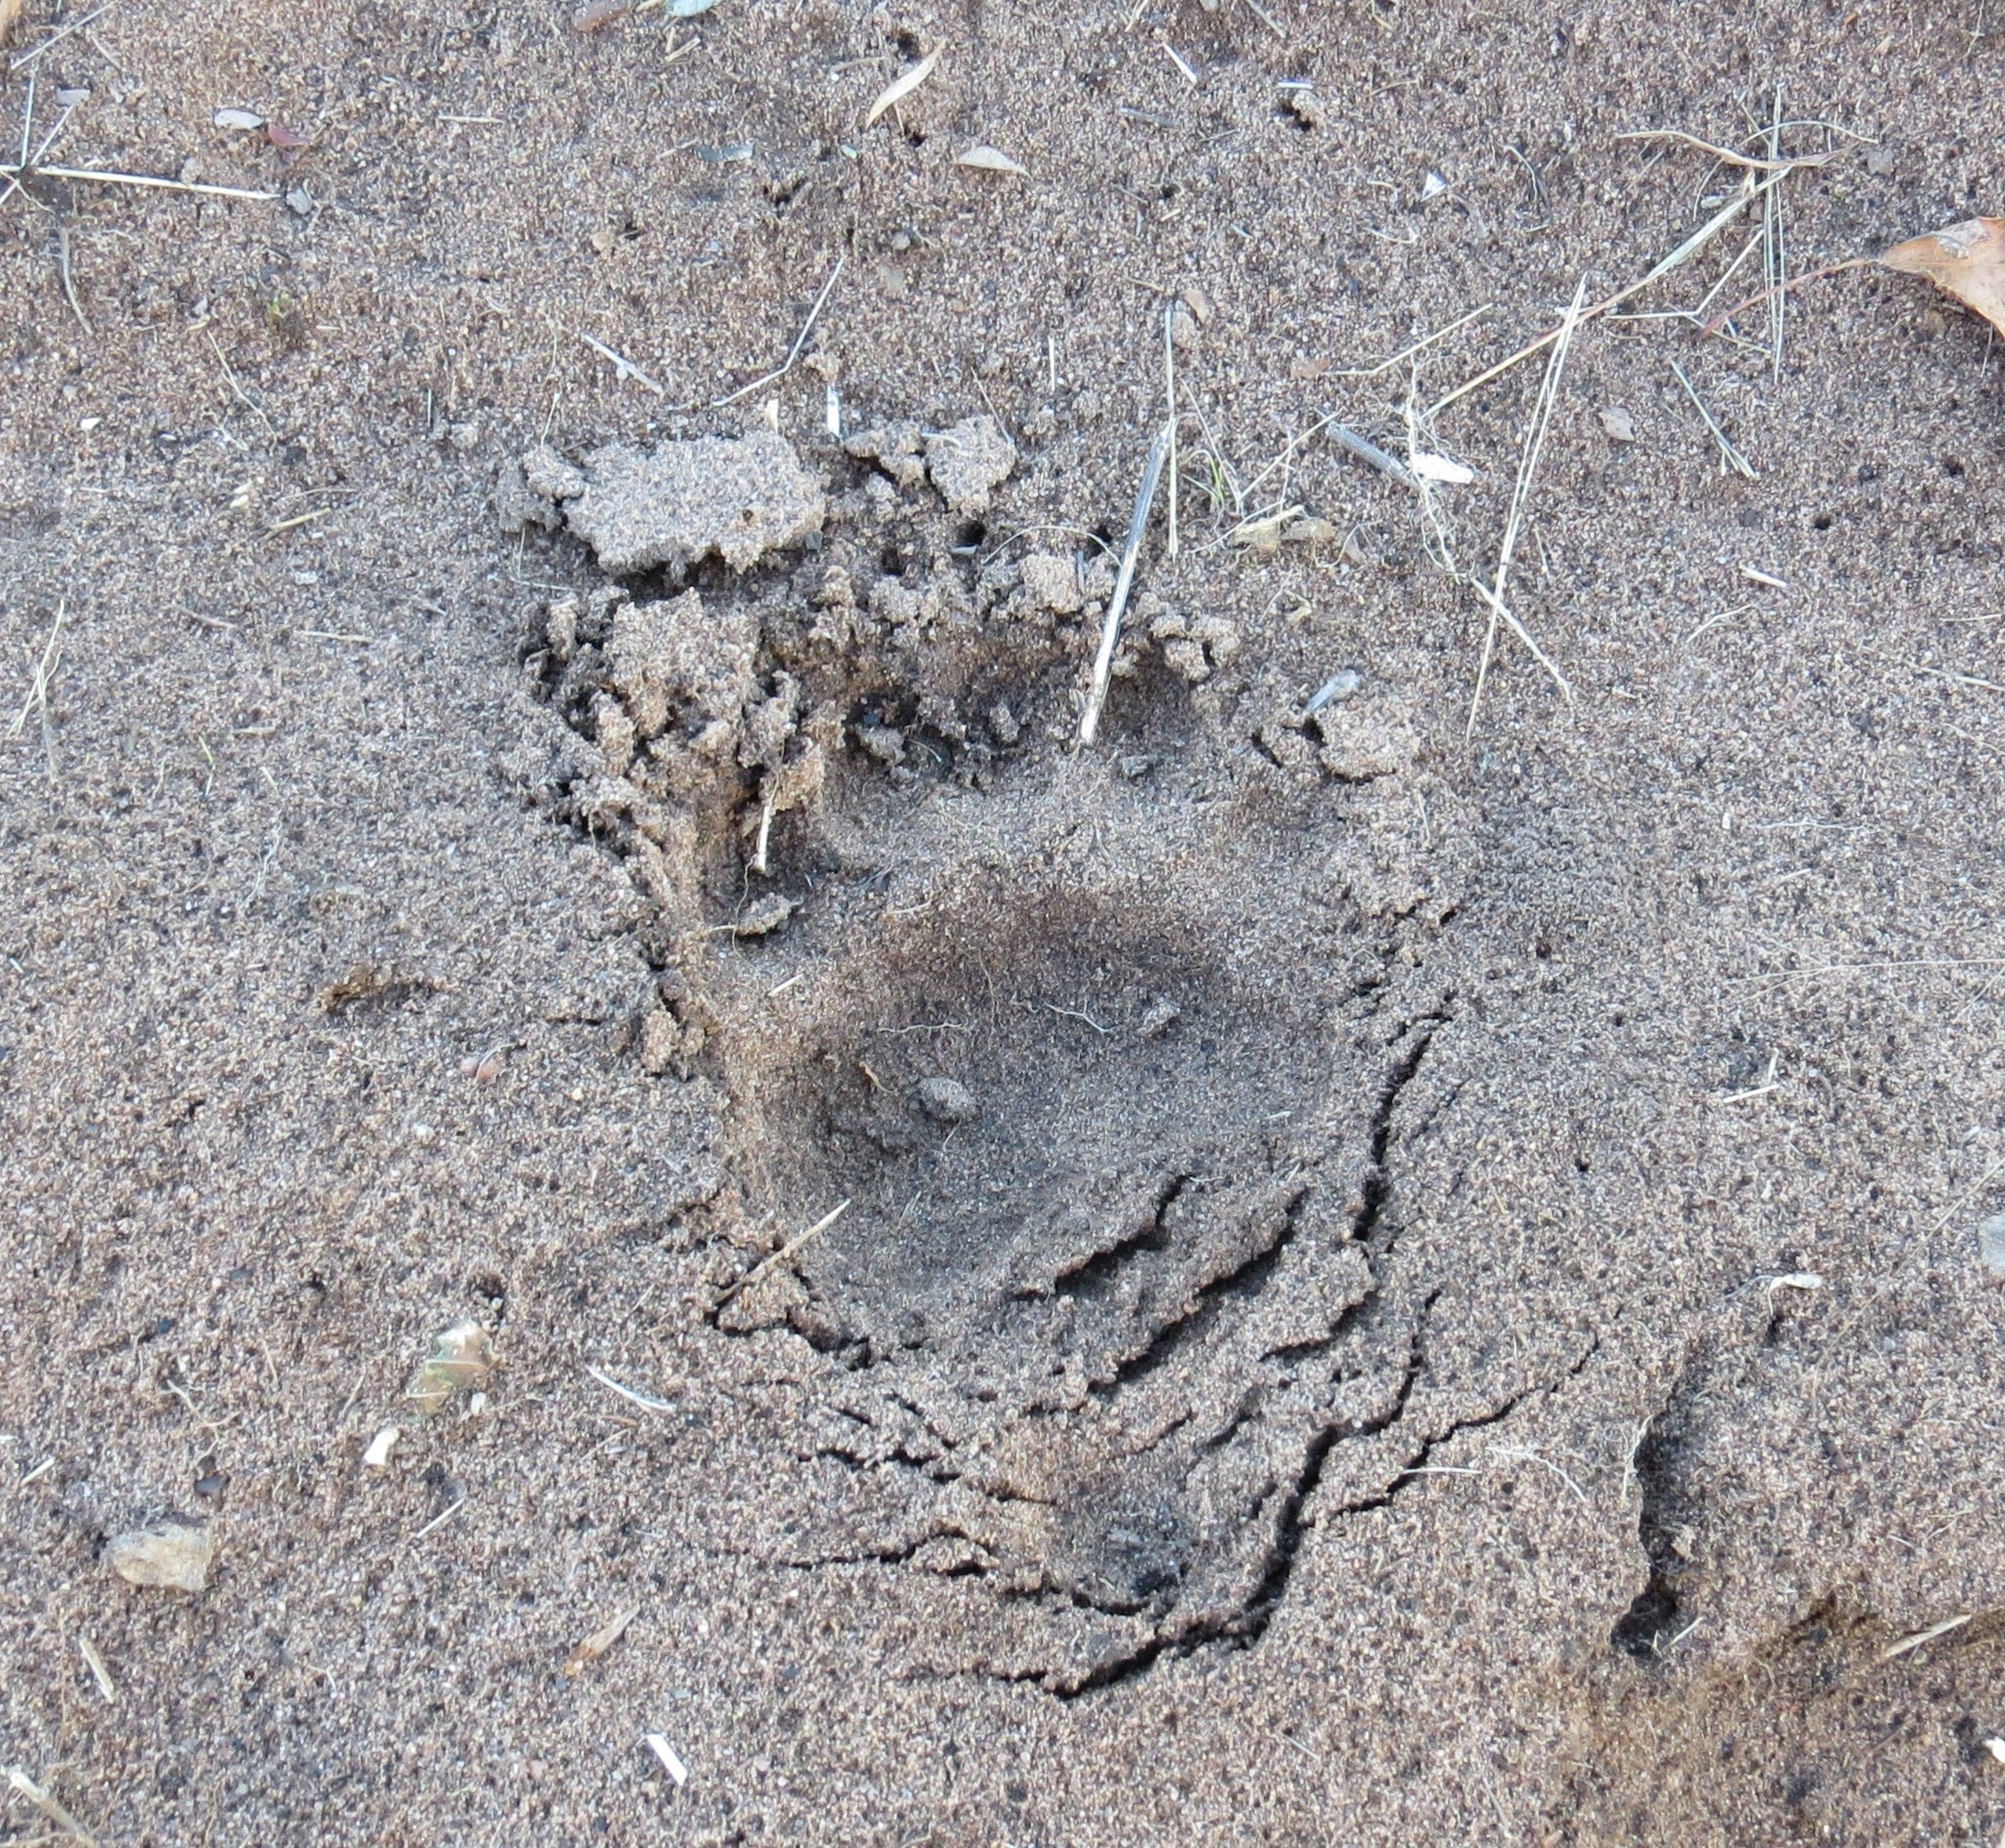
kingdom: Animalia
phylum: Chordata
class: Mammalia
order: Carnivora
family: Ursidae
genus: Ursus
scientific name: Ursus americanus
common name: American black bear
